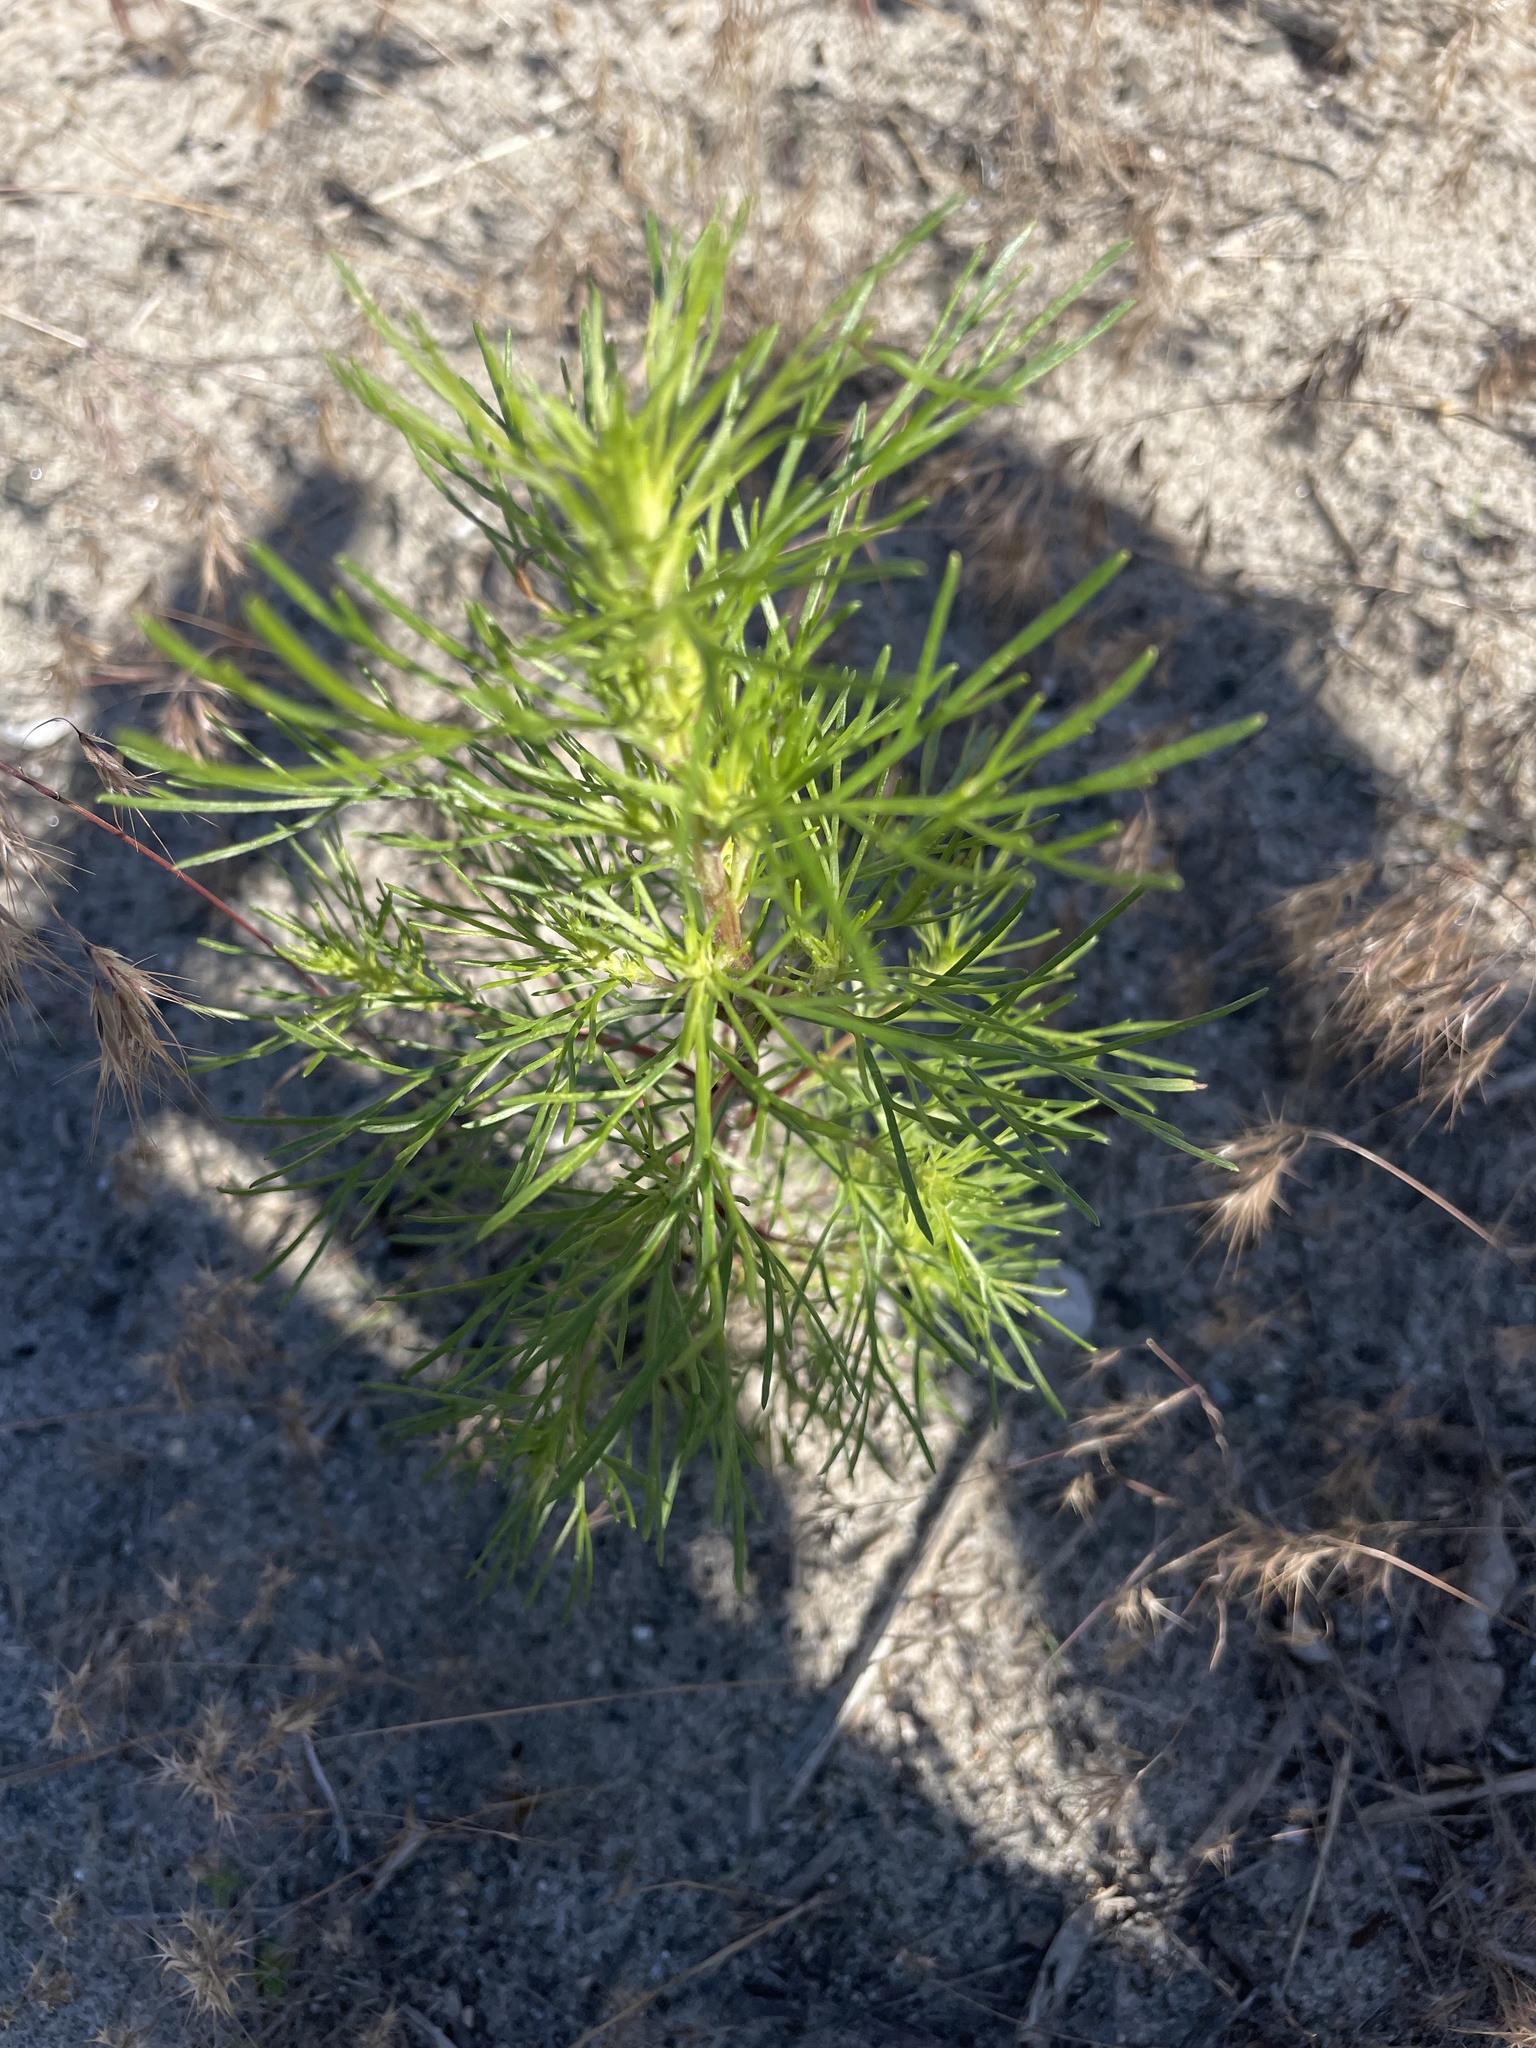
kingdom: Plantae
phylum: Tracheophyta
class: Magnoliopsida
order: Asterales
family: Asteraceae
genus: Artemisia
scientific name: Artemisia campestris
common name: Field wormwood
